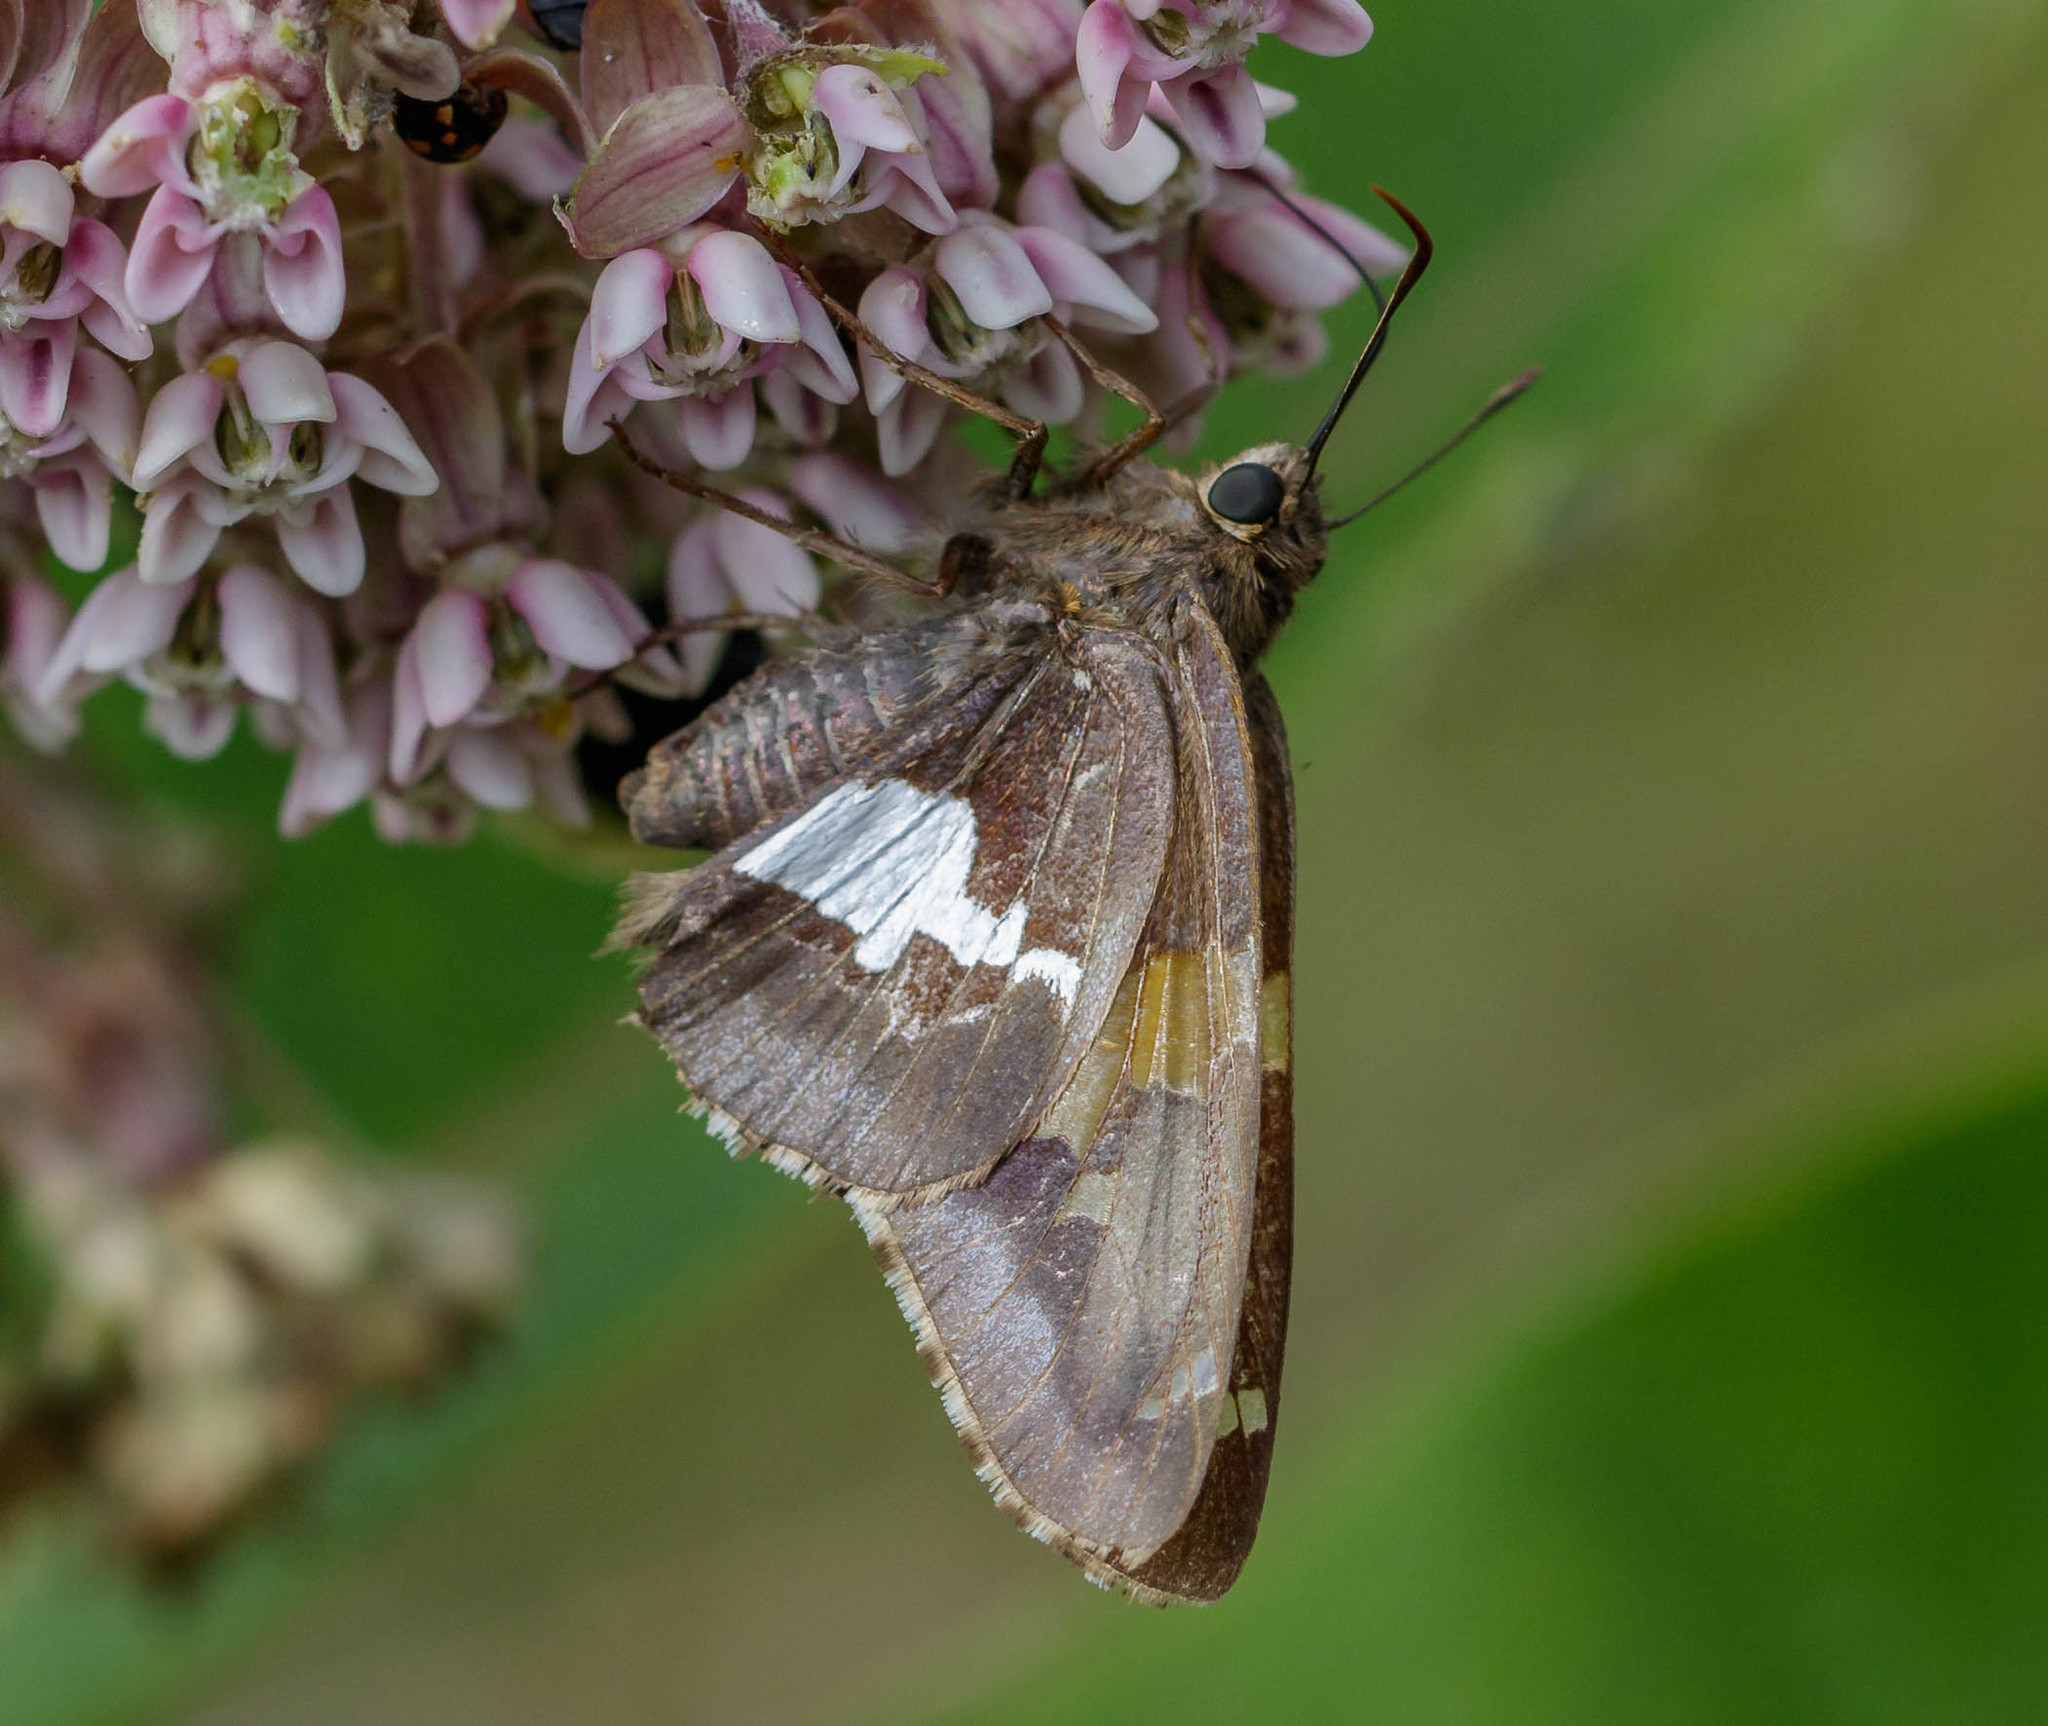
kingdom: Animalia
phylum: Arthropoda
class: Insecta
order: Lepidoptera
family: Hesperiidae
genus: Epargyreus
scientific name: Epargyreus clarus
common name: Silver-spotted skipper
